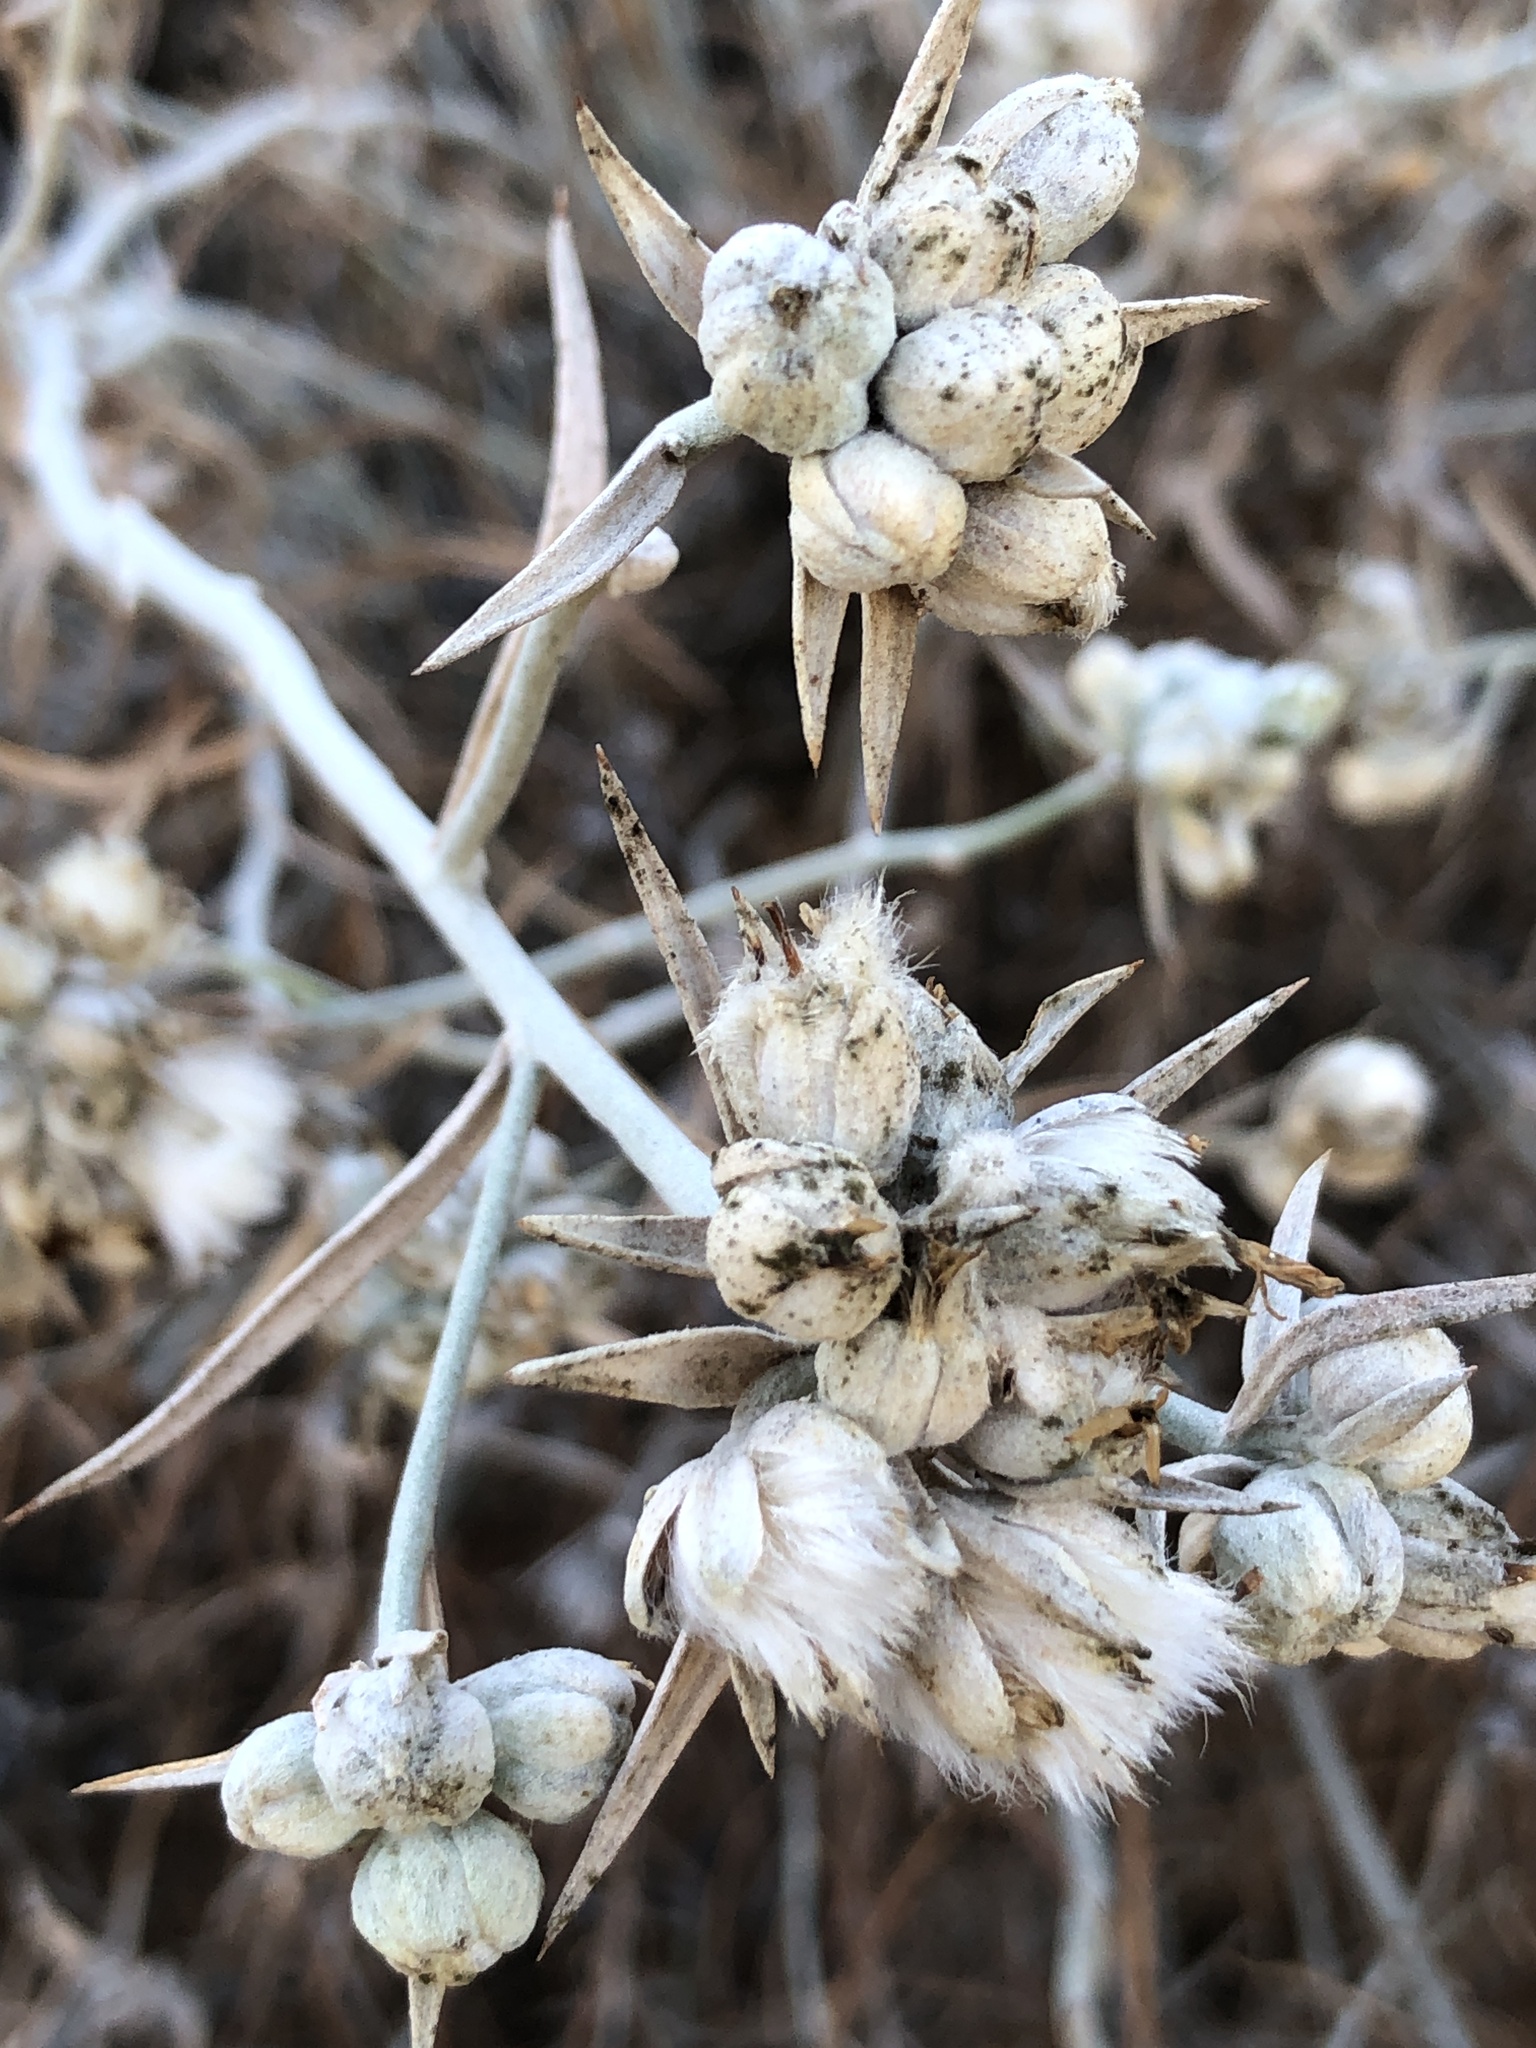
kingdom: Plantae
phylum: Tracheophyta
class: Magnoliopsida
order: Asterales
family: Asteraceae
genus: Tetradymia
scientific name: Tetradymia comosa
